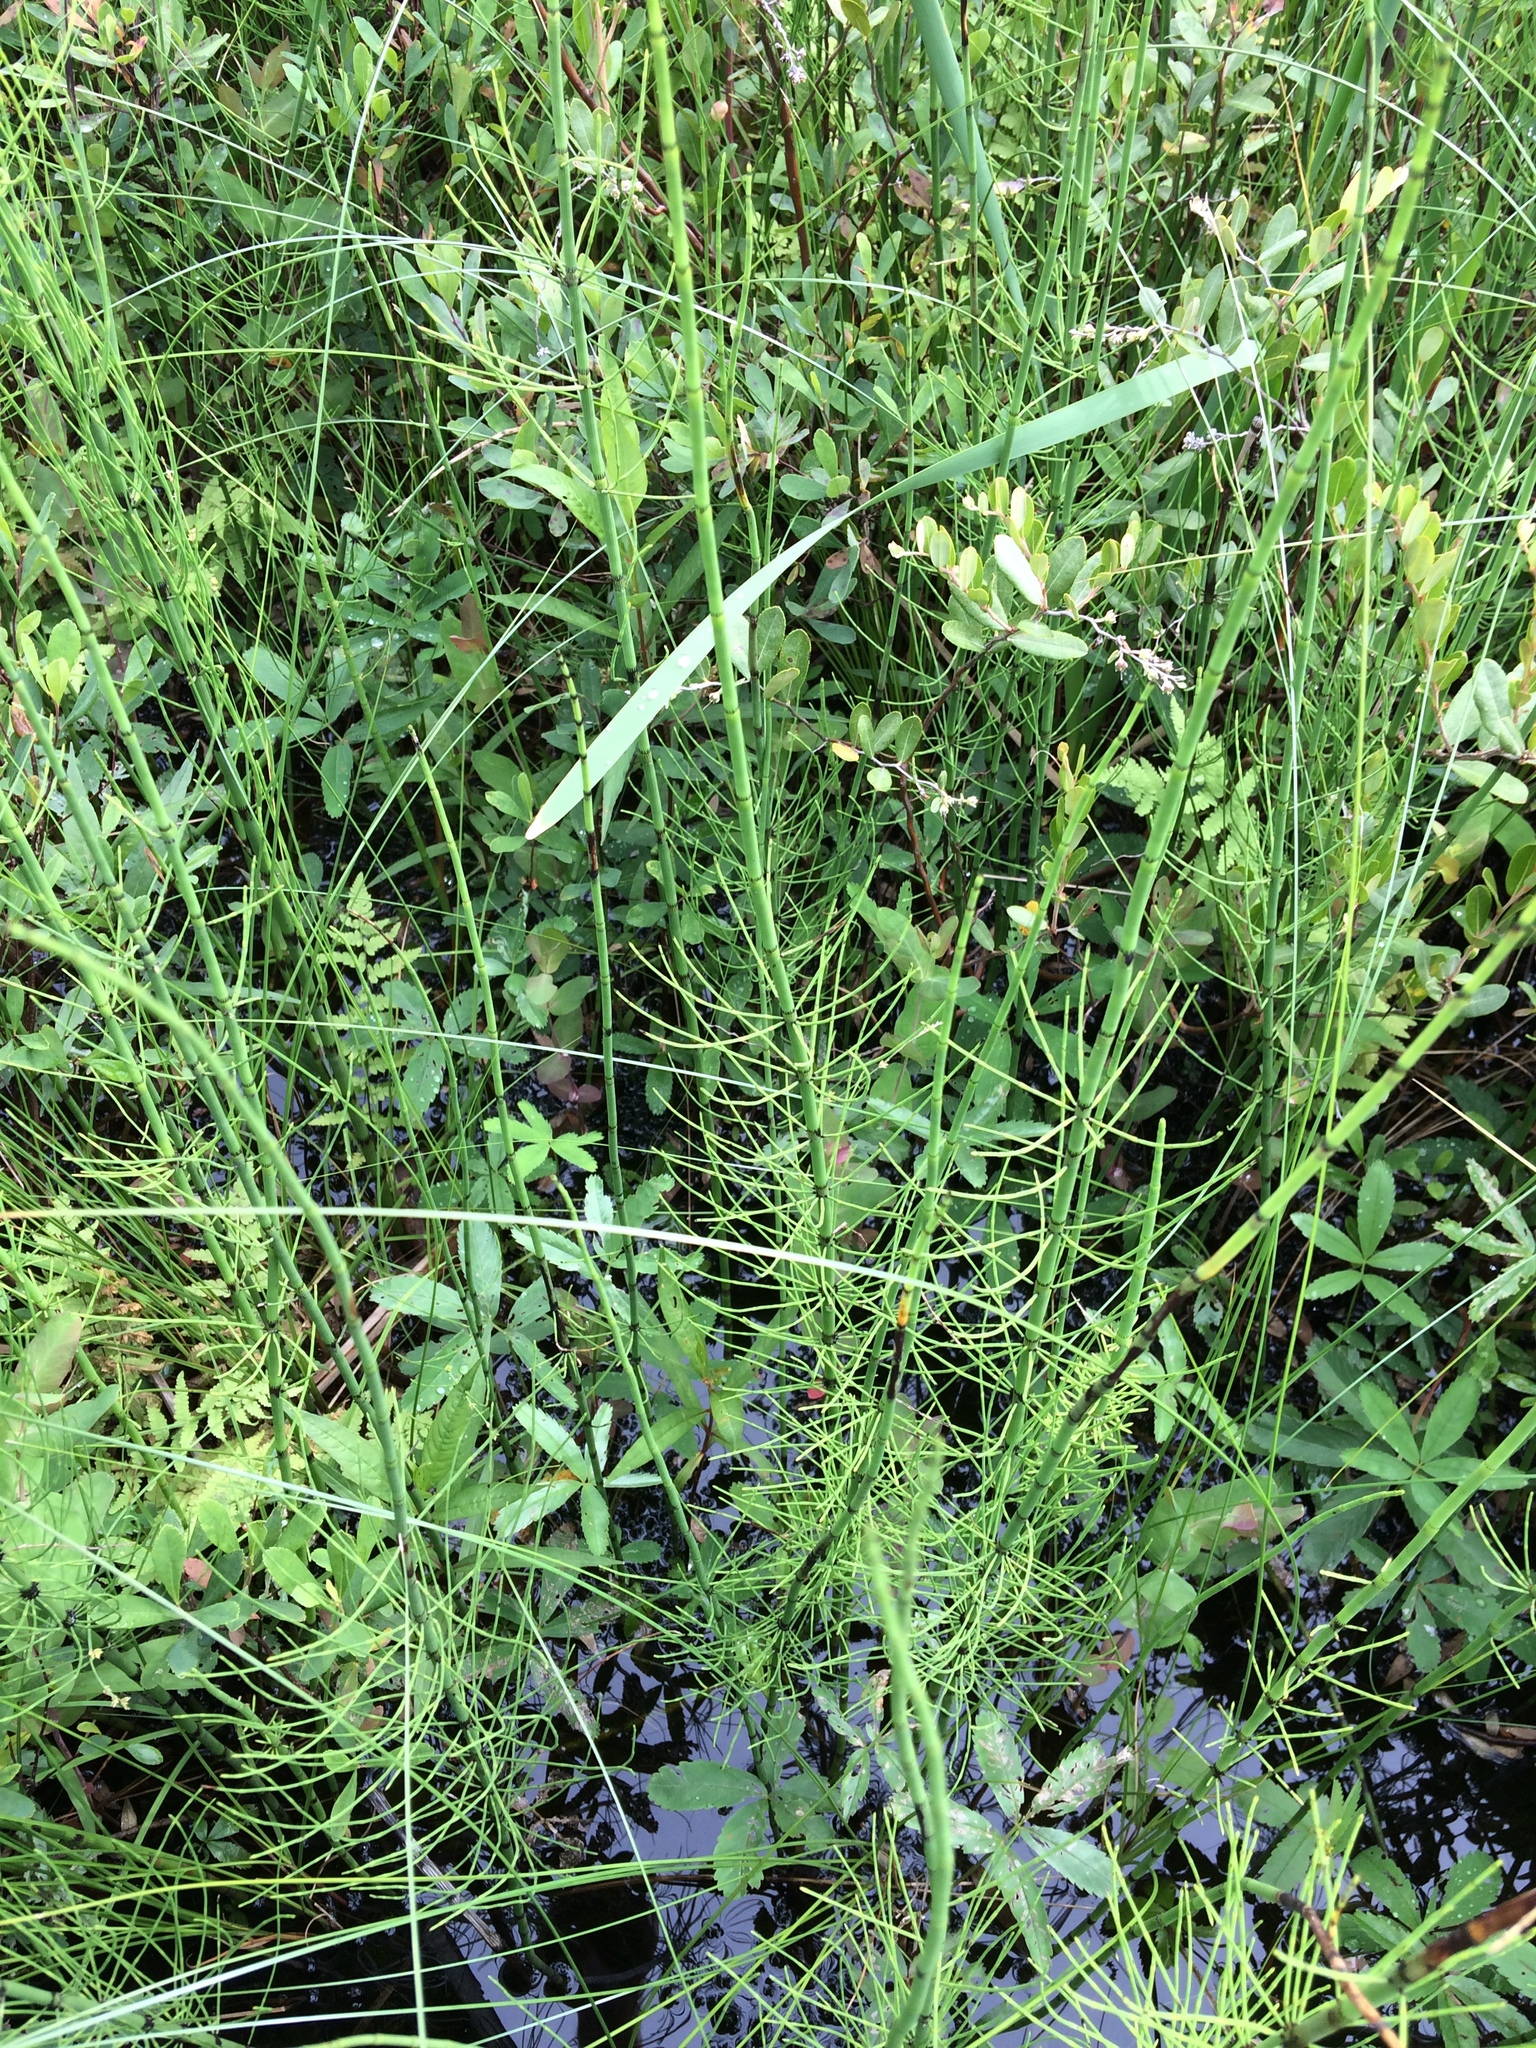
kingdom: Plantae
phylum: Tracheophyta
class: Polypodiopsida
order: Equisetales
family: Equisetaceae
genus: Equisetum
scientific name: Equisetum fluviatile
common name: Water horsetail
